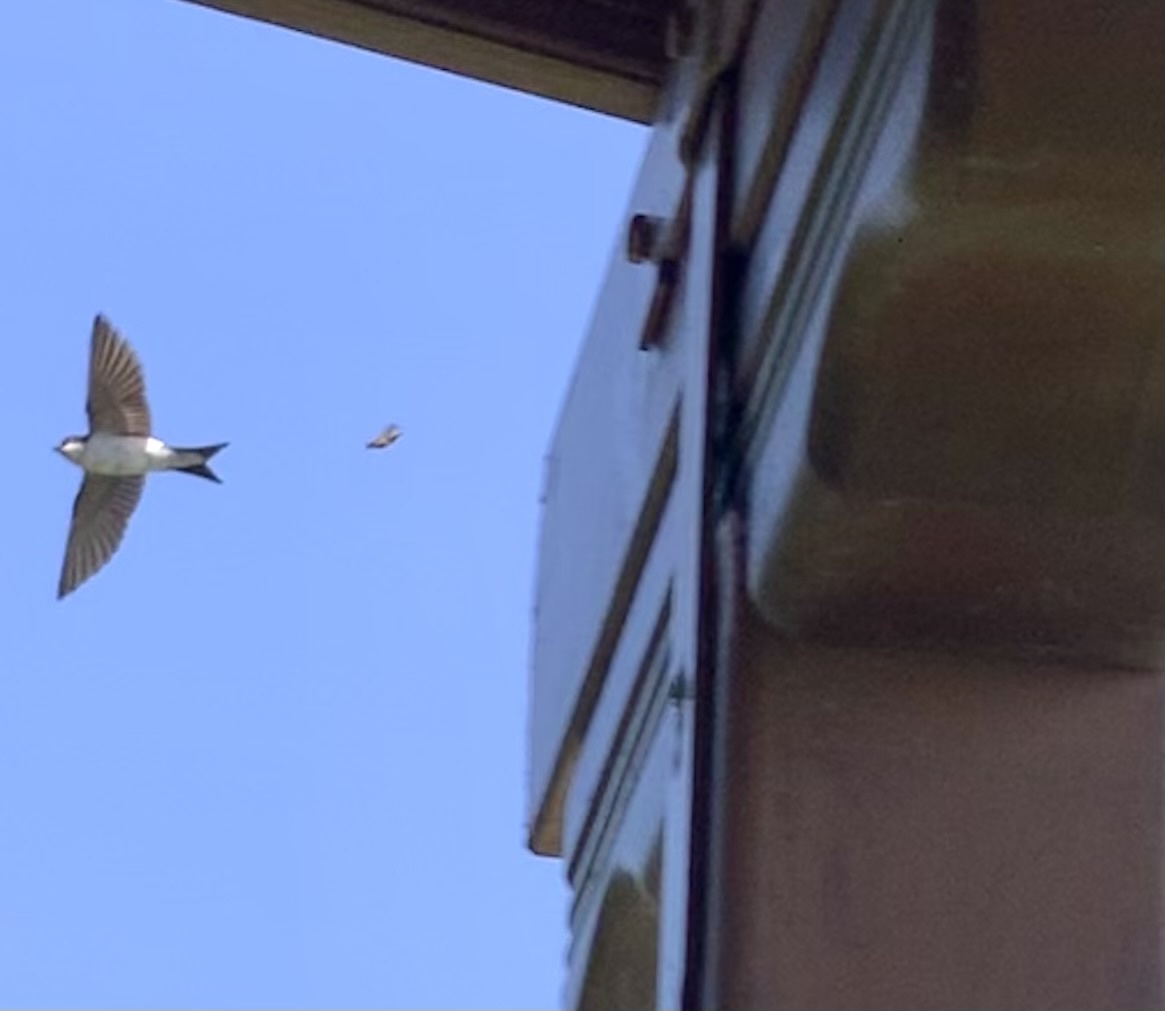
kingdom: Animalia
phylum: Chordata
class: Aves
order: Passeriformes
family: Hirundinidae
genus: Delichon
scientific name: Delichon urbicum
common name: Common house martin
